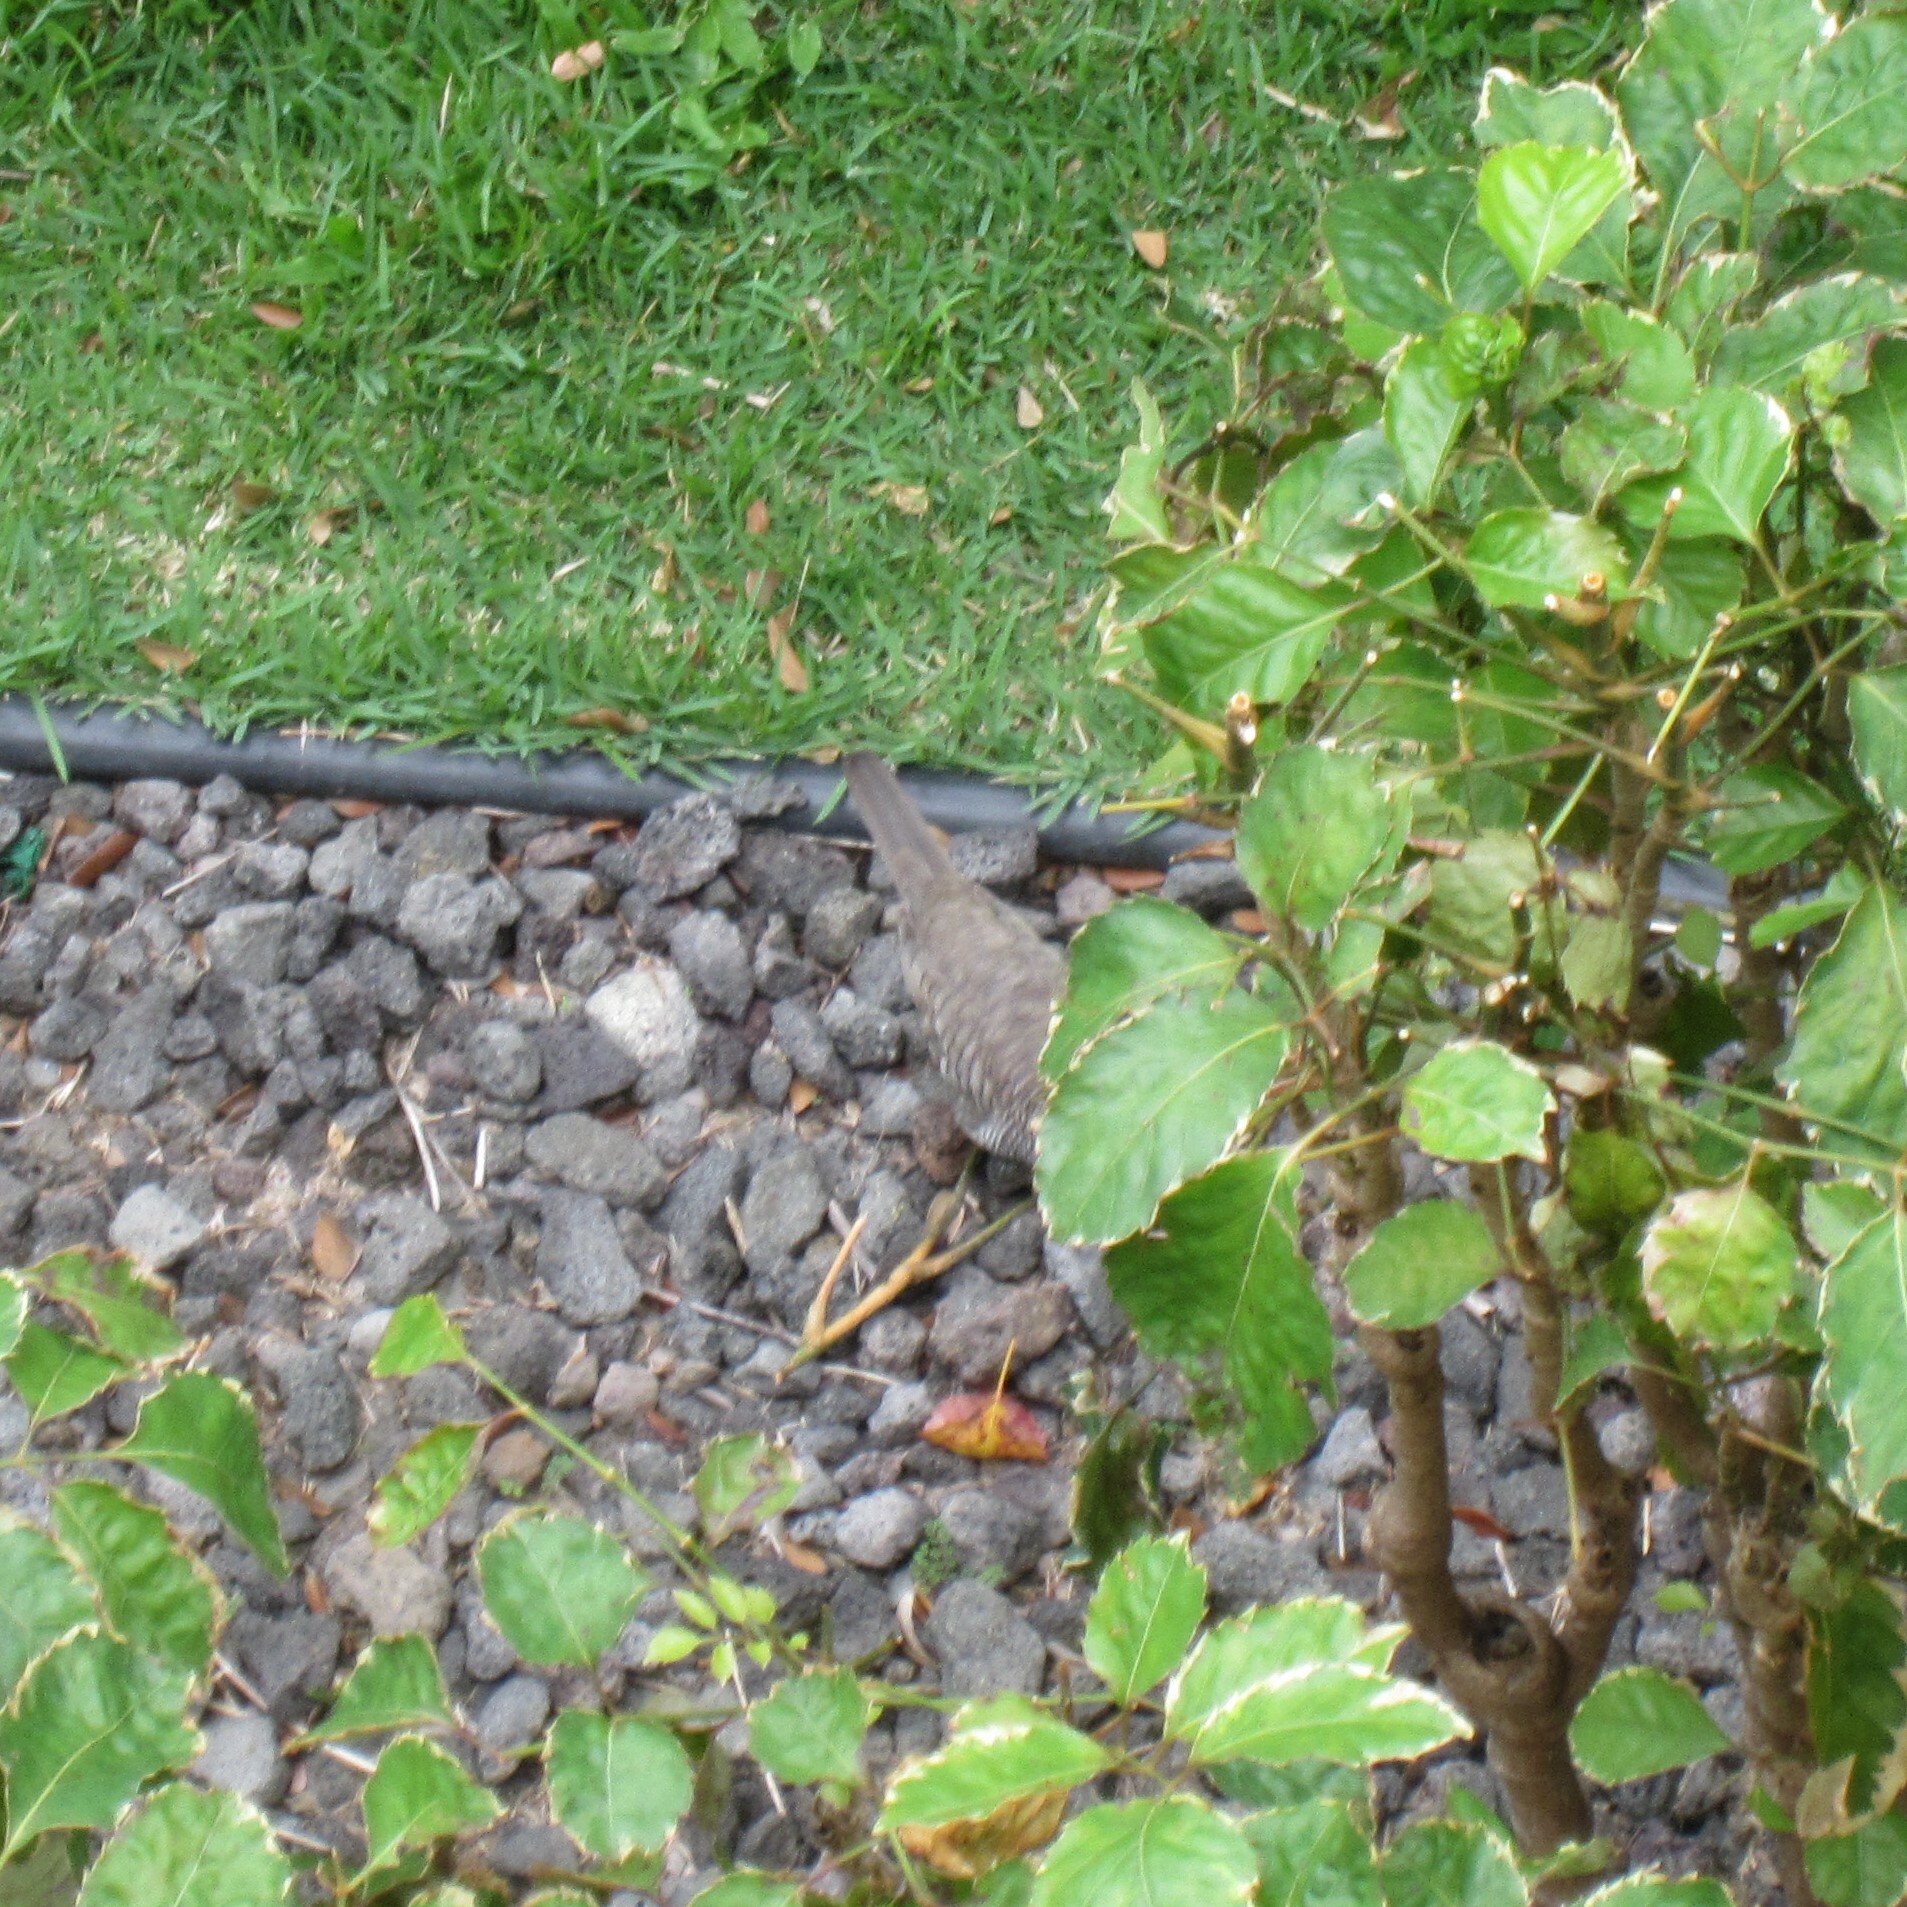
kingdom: Animalia
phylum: Chordata
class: Aves
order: Columbiformes
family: Columbidae
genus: Geopelia
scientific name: Geopelia striata
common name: Zebra dove
